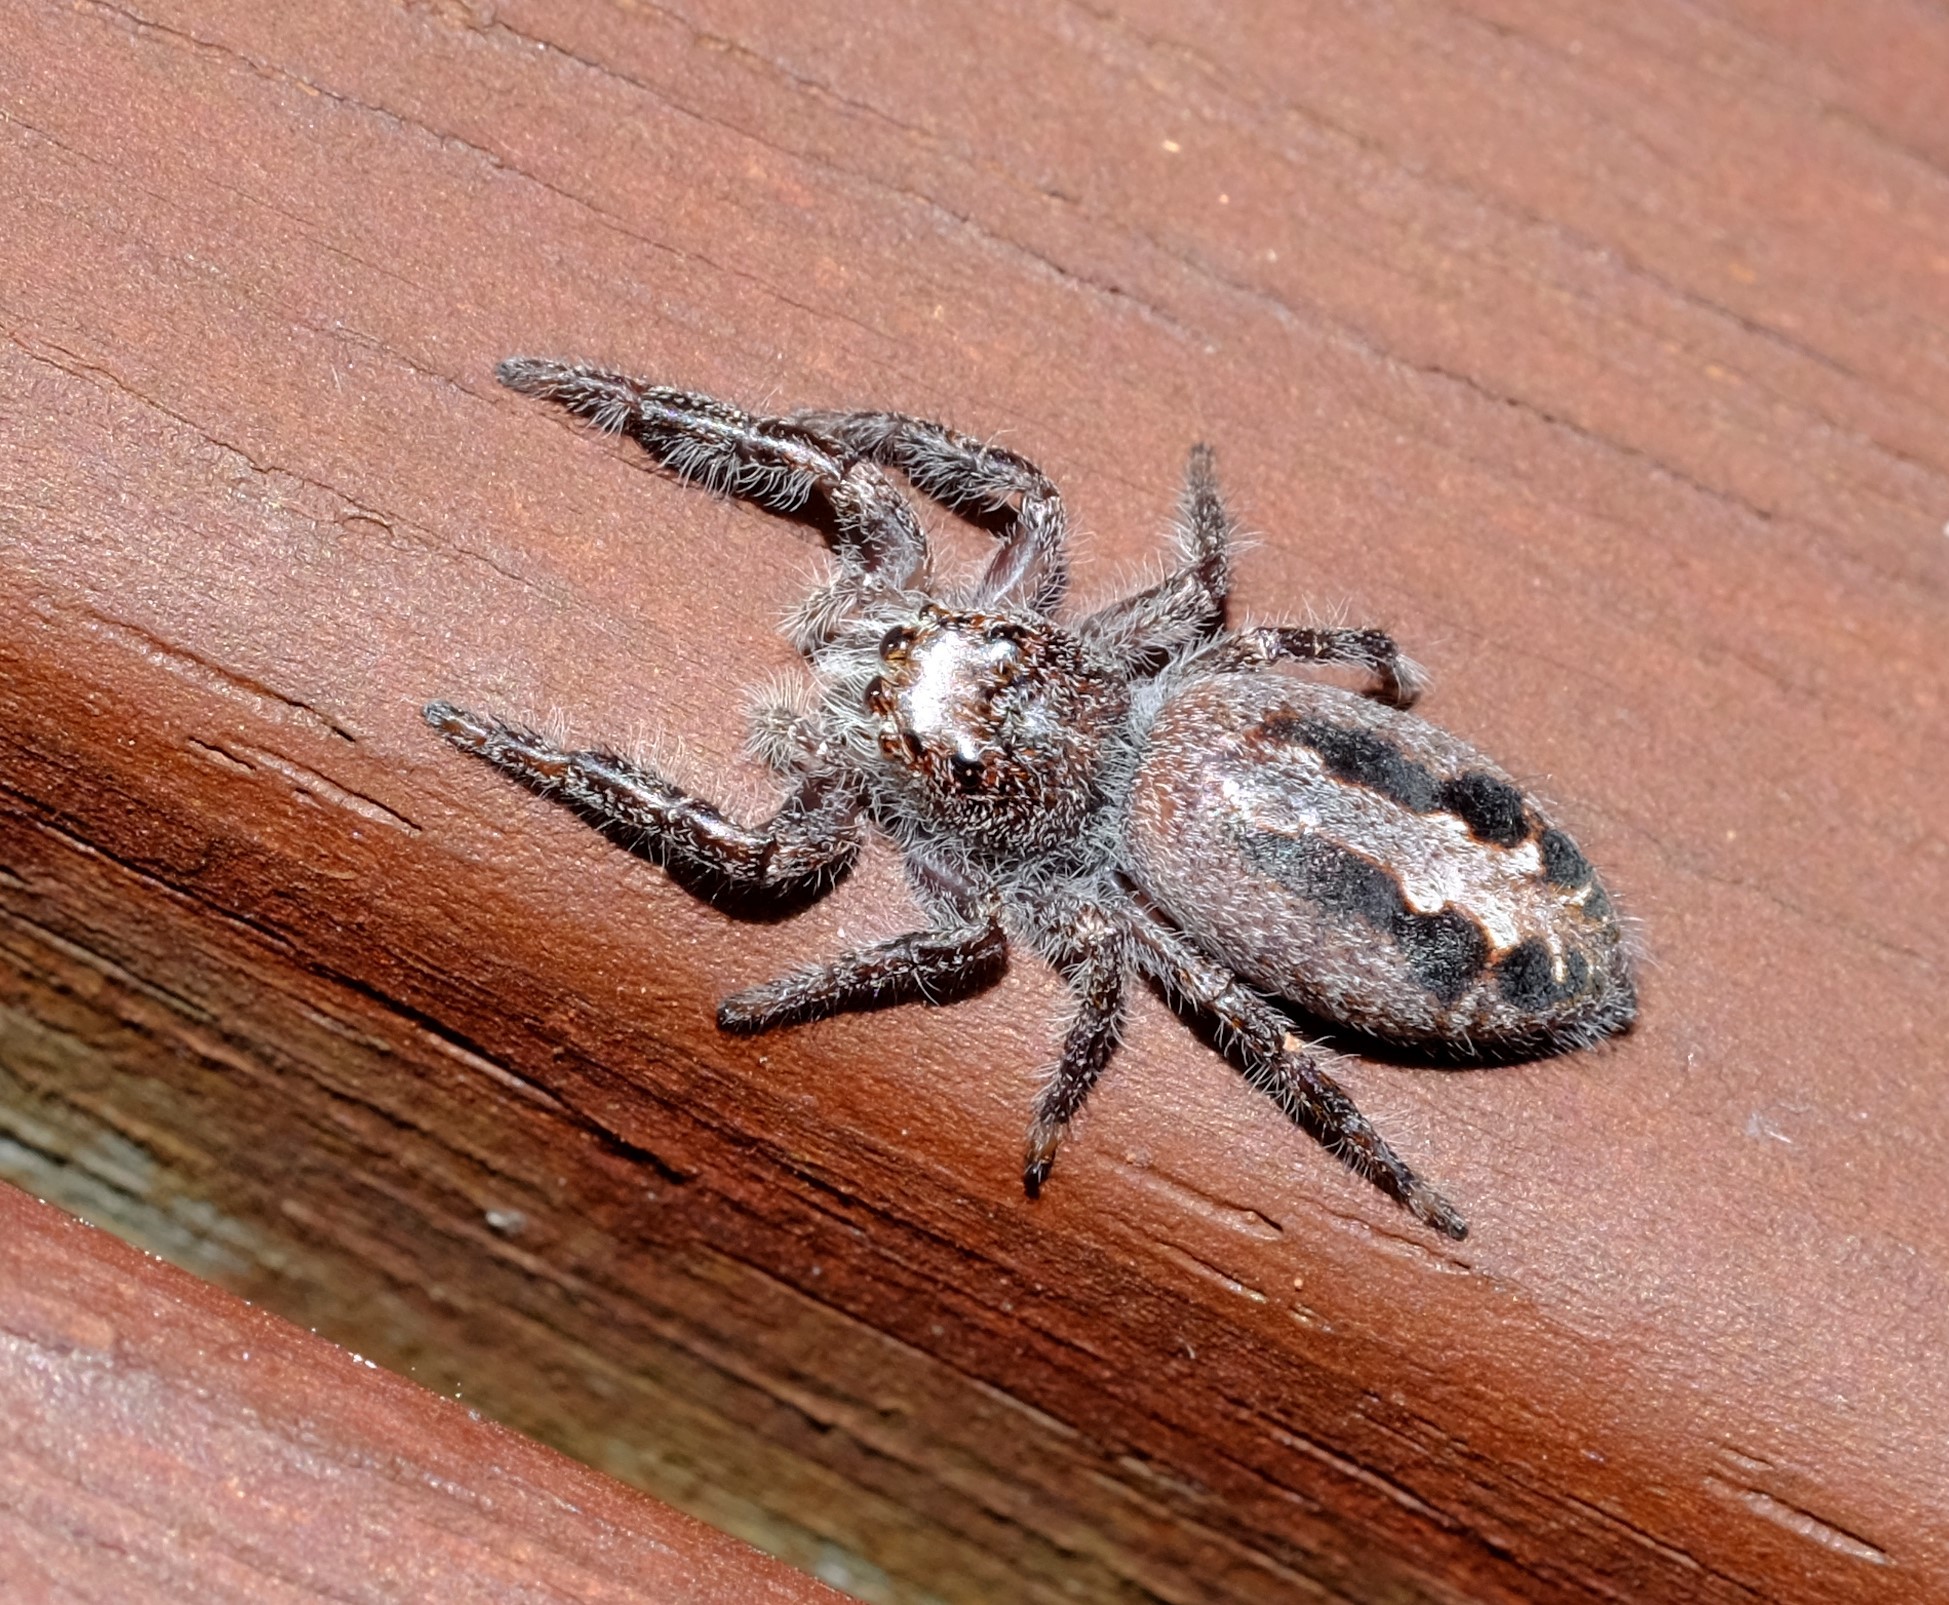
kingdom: Animalia
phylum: Arthropoda
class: Arachnida
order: Araneae
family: Salticidae
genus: Sandalodes
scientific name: Sandalodes superbus
